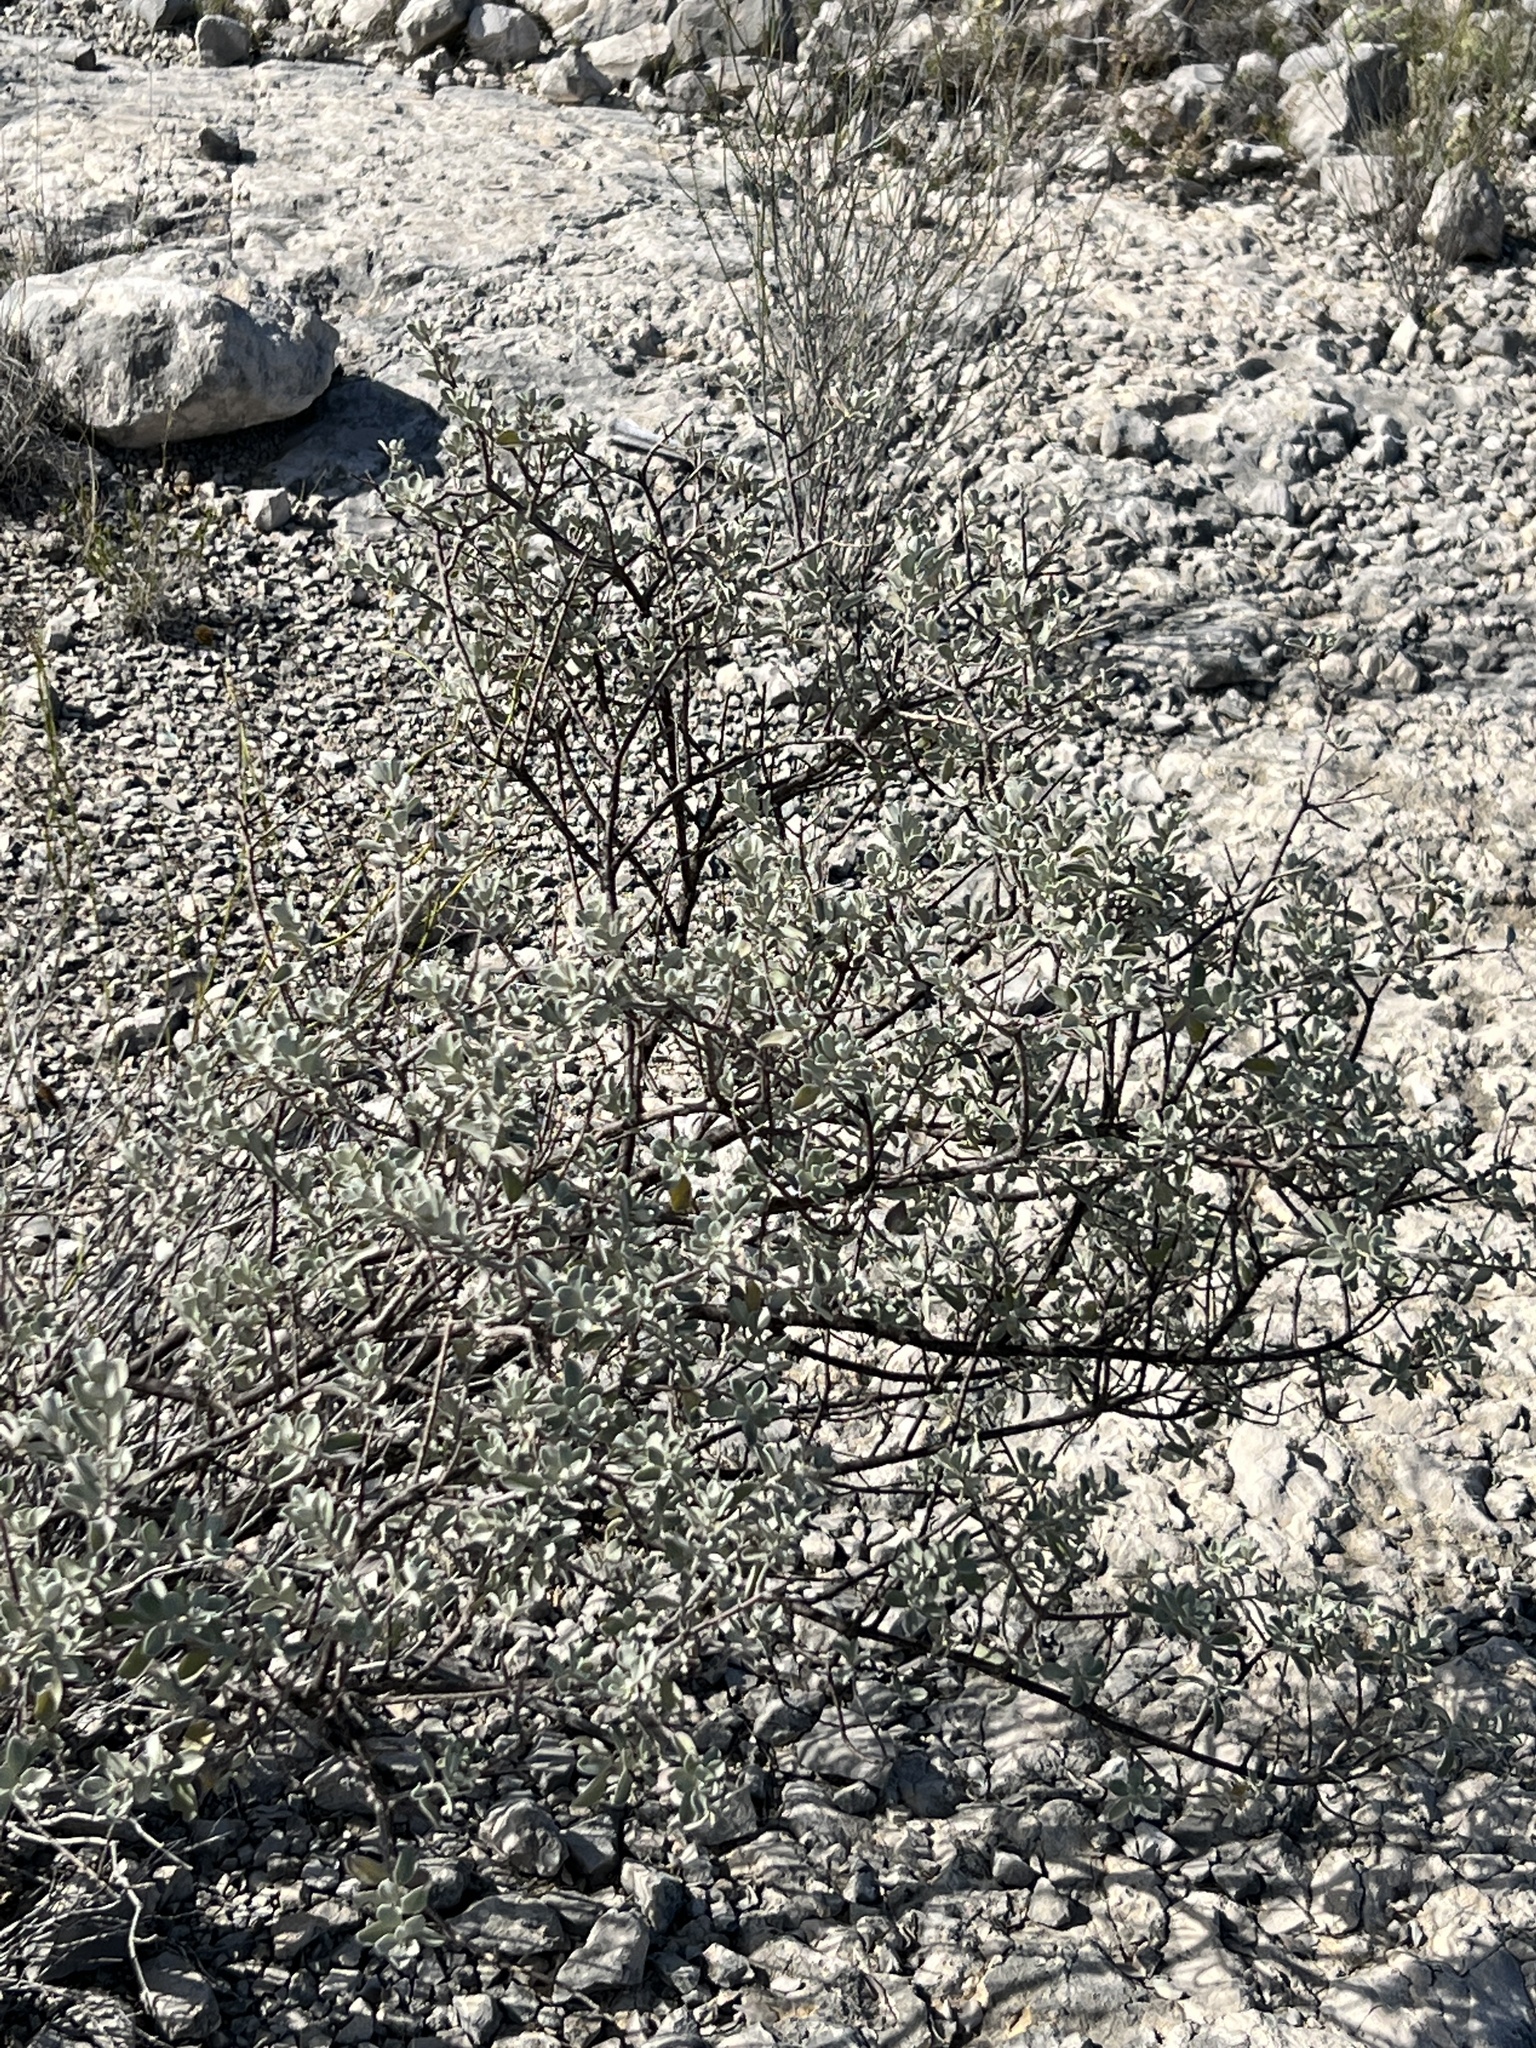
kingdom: Plantae
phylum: Tracheophyta
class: Magnoliopsida
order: Lamiales
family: Scrophulariaceae
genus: Leucophyllum
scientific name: Leucophyllum frutescens
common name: Texas silverleaf
